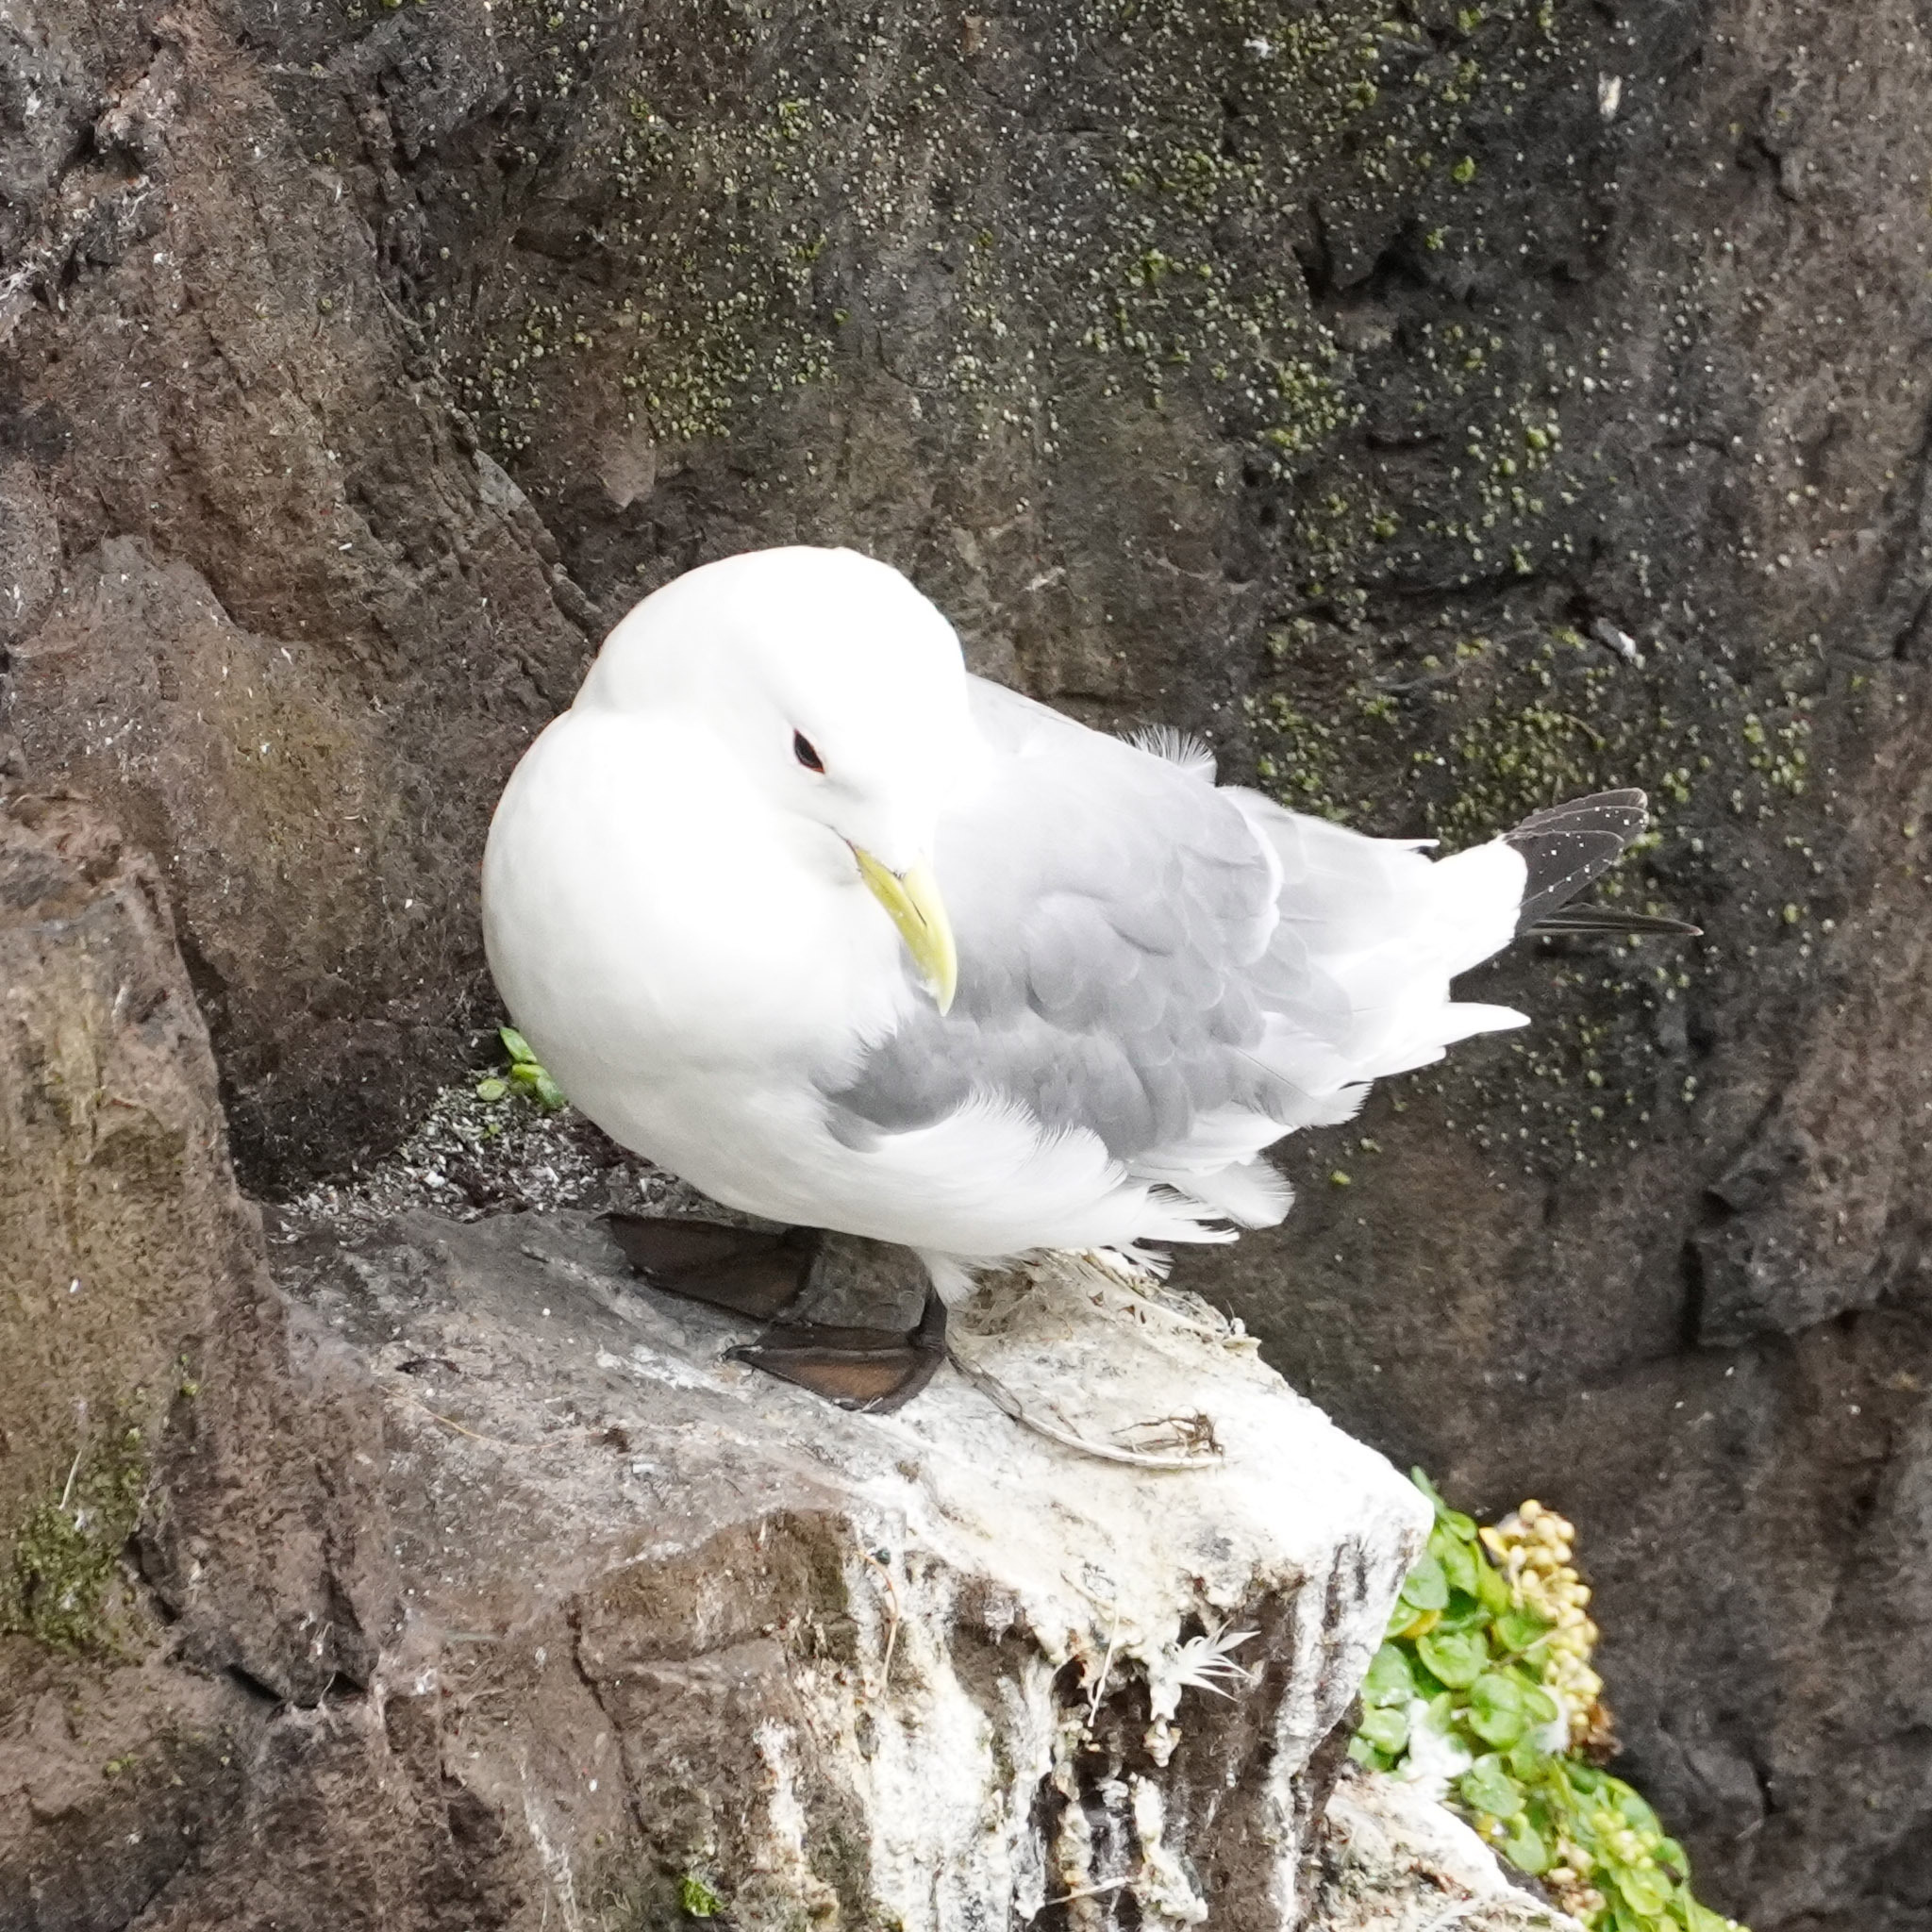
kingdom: Animalia
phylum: Chordata
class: Aves
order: Charadriiformes
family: Laridae
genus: Rissa
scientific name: Rissa tridactyla
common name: Black-legged kittiwake
